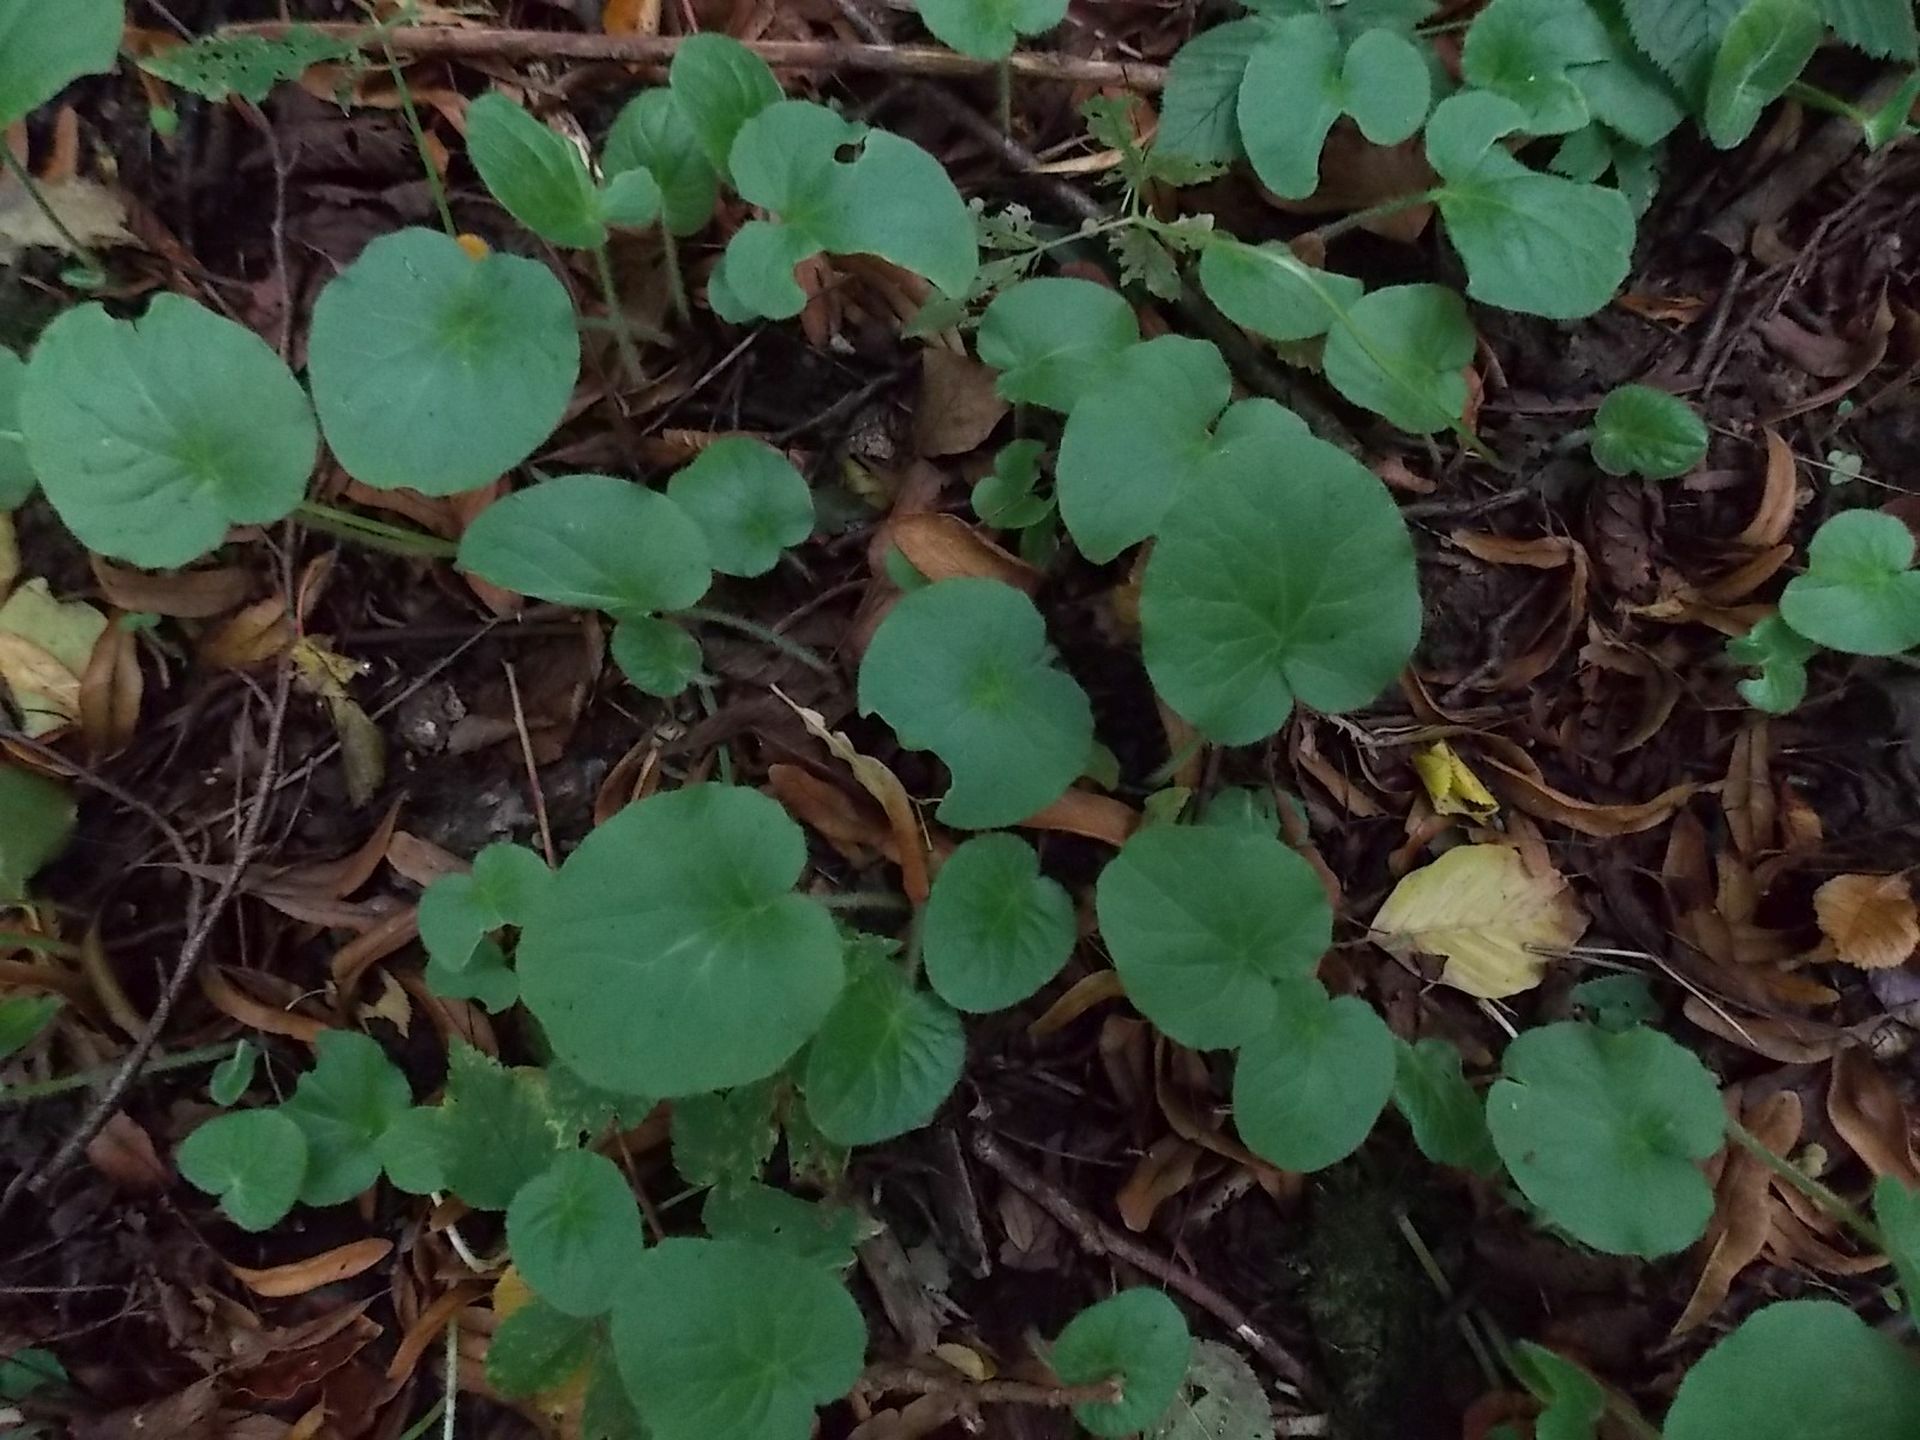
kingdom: Plantae
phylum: Tracheophyta
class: Magnoliopsida
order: Asterales
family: Asteraceae
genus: Doronicum
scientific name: Doronicum pardalianches
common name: Leopard's-bane
